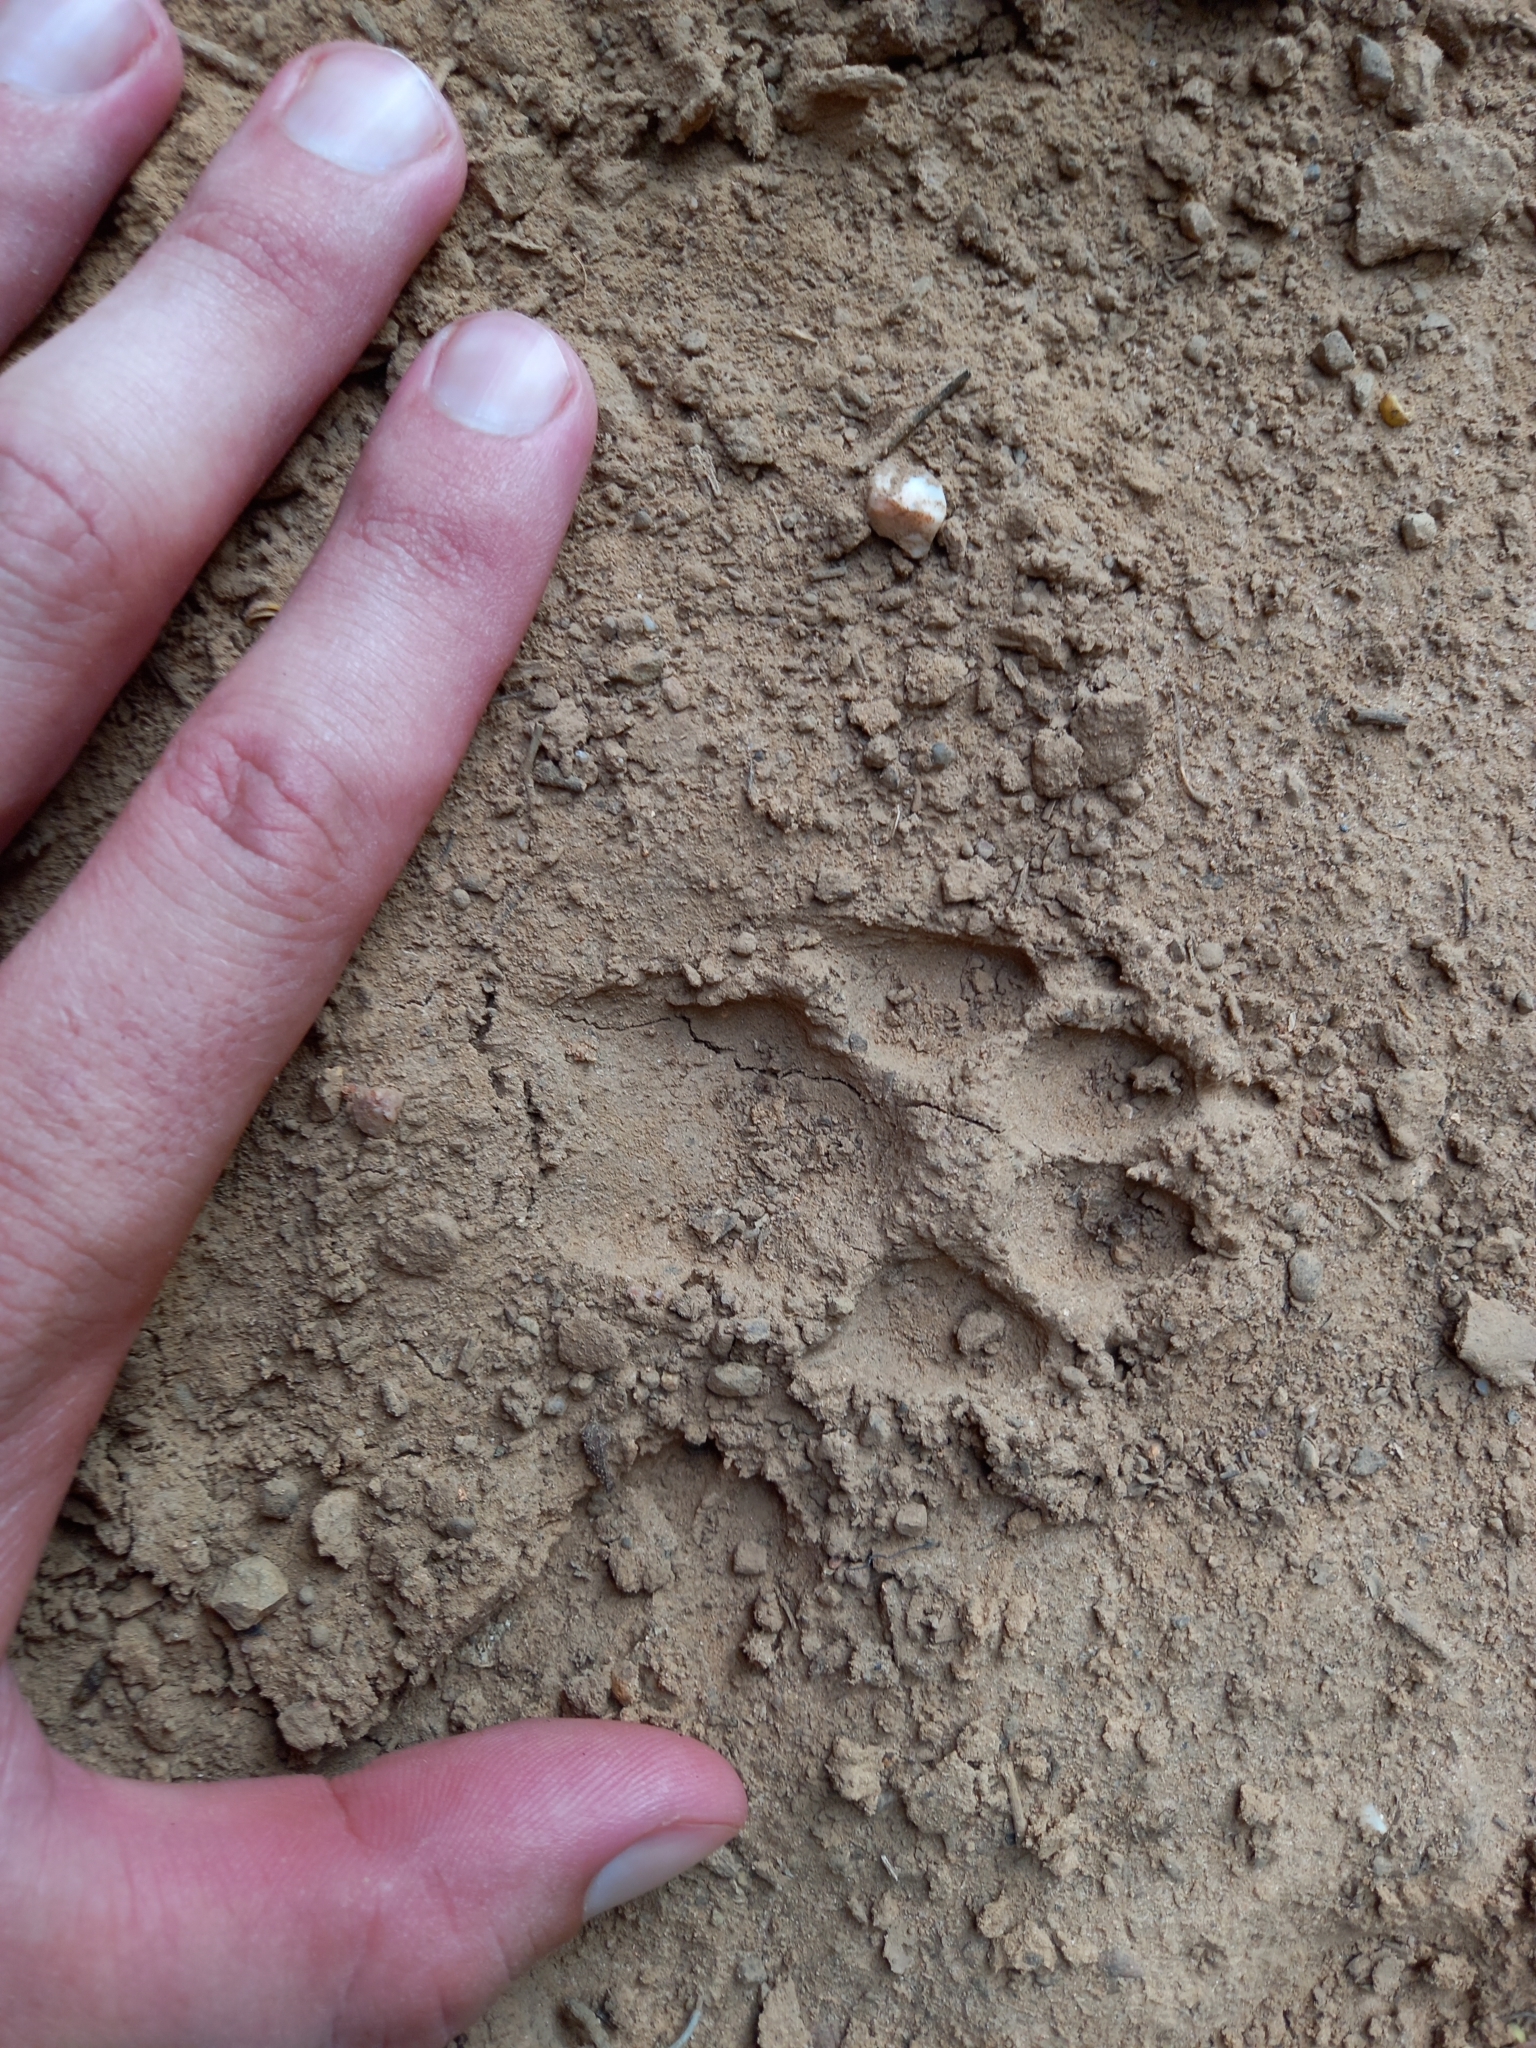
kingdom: Animalia
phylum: Chordata
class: Mammalia
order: Carnivora
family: Canidae
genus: Lupulella
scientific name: Lupulella
